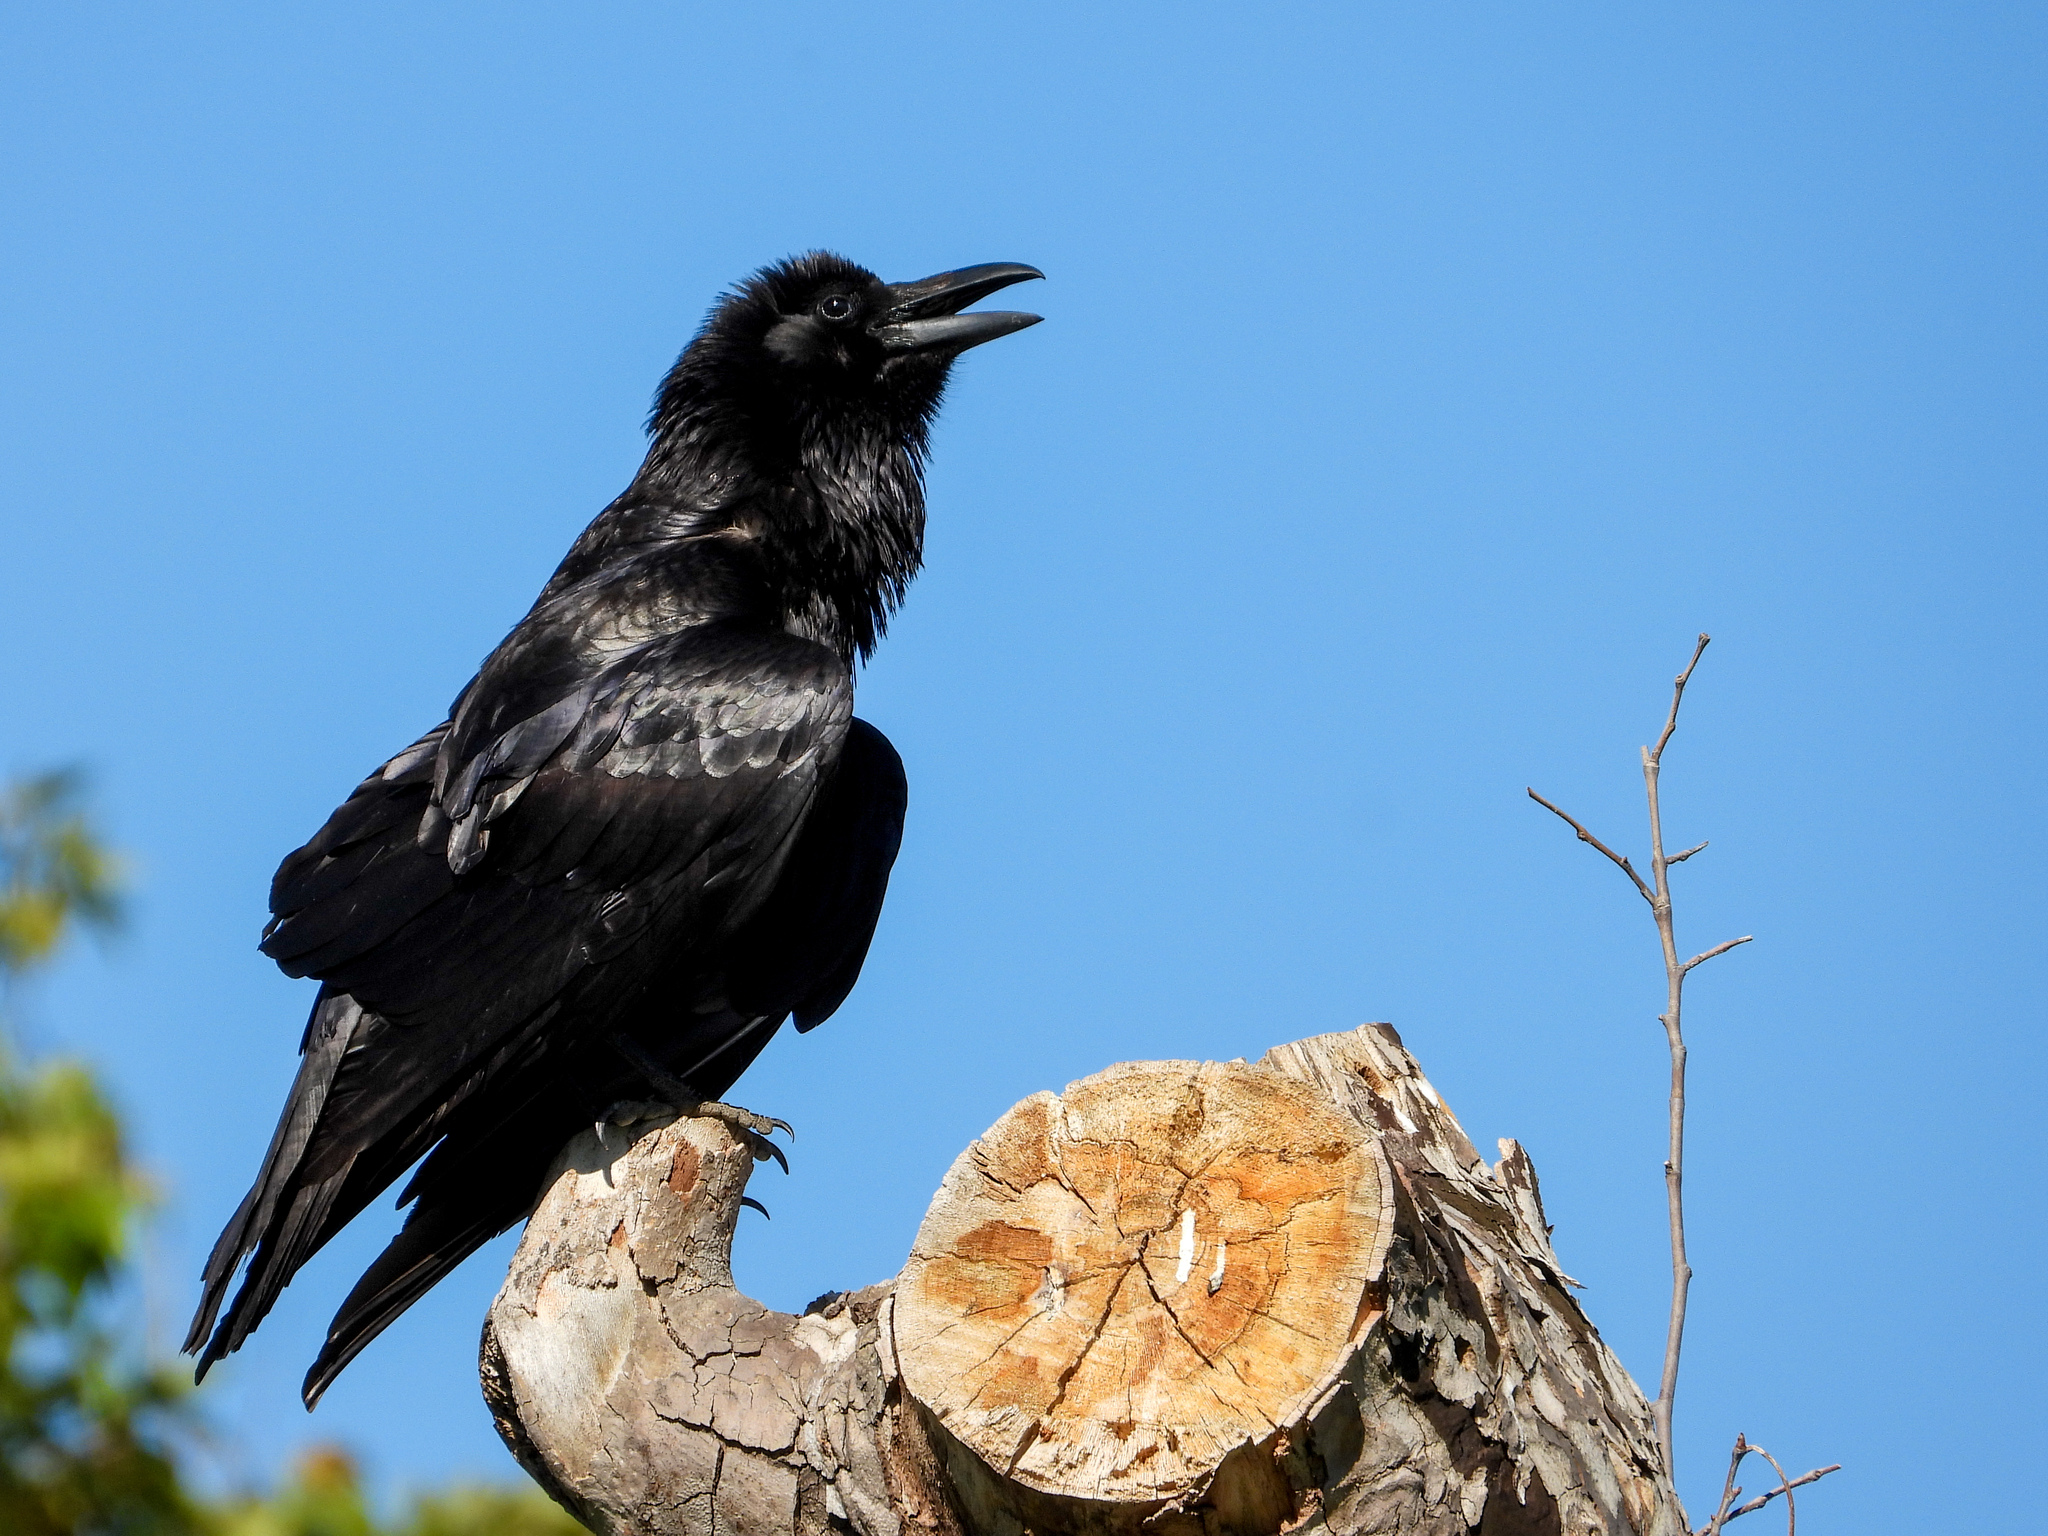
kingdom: Animalia
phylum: Chordata
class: Aves
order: Passeriformes
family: Corvidae
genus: Corvus
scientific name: Corvus corax
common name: Common raven
